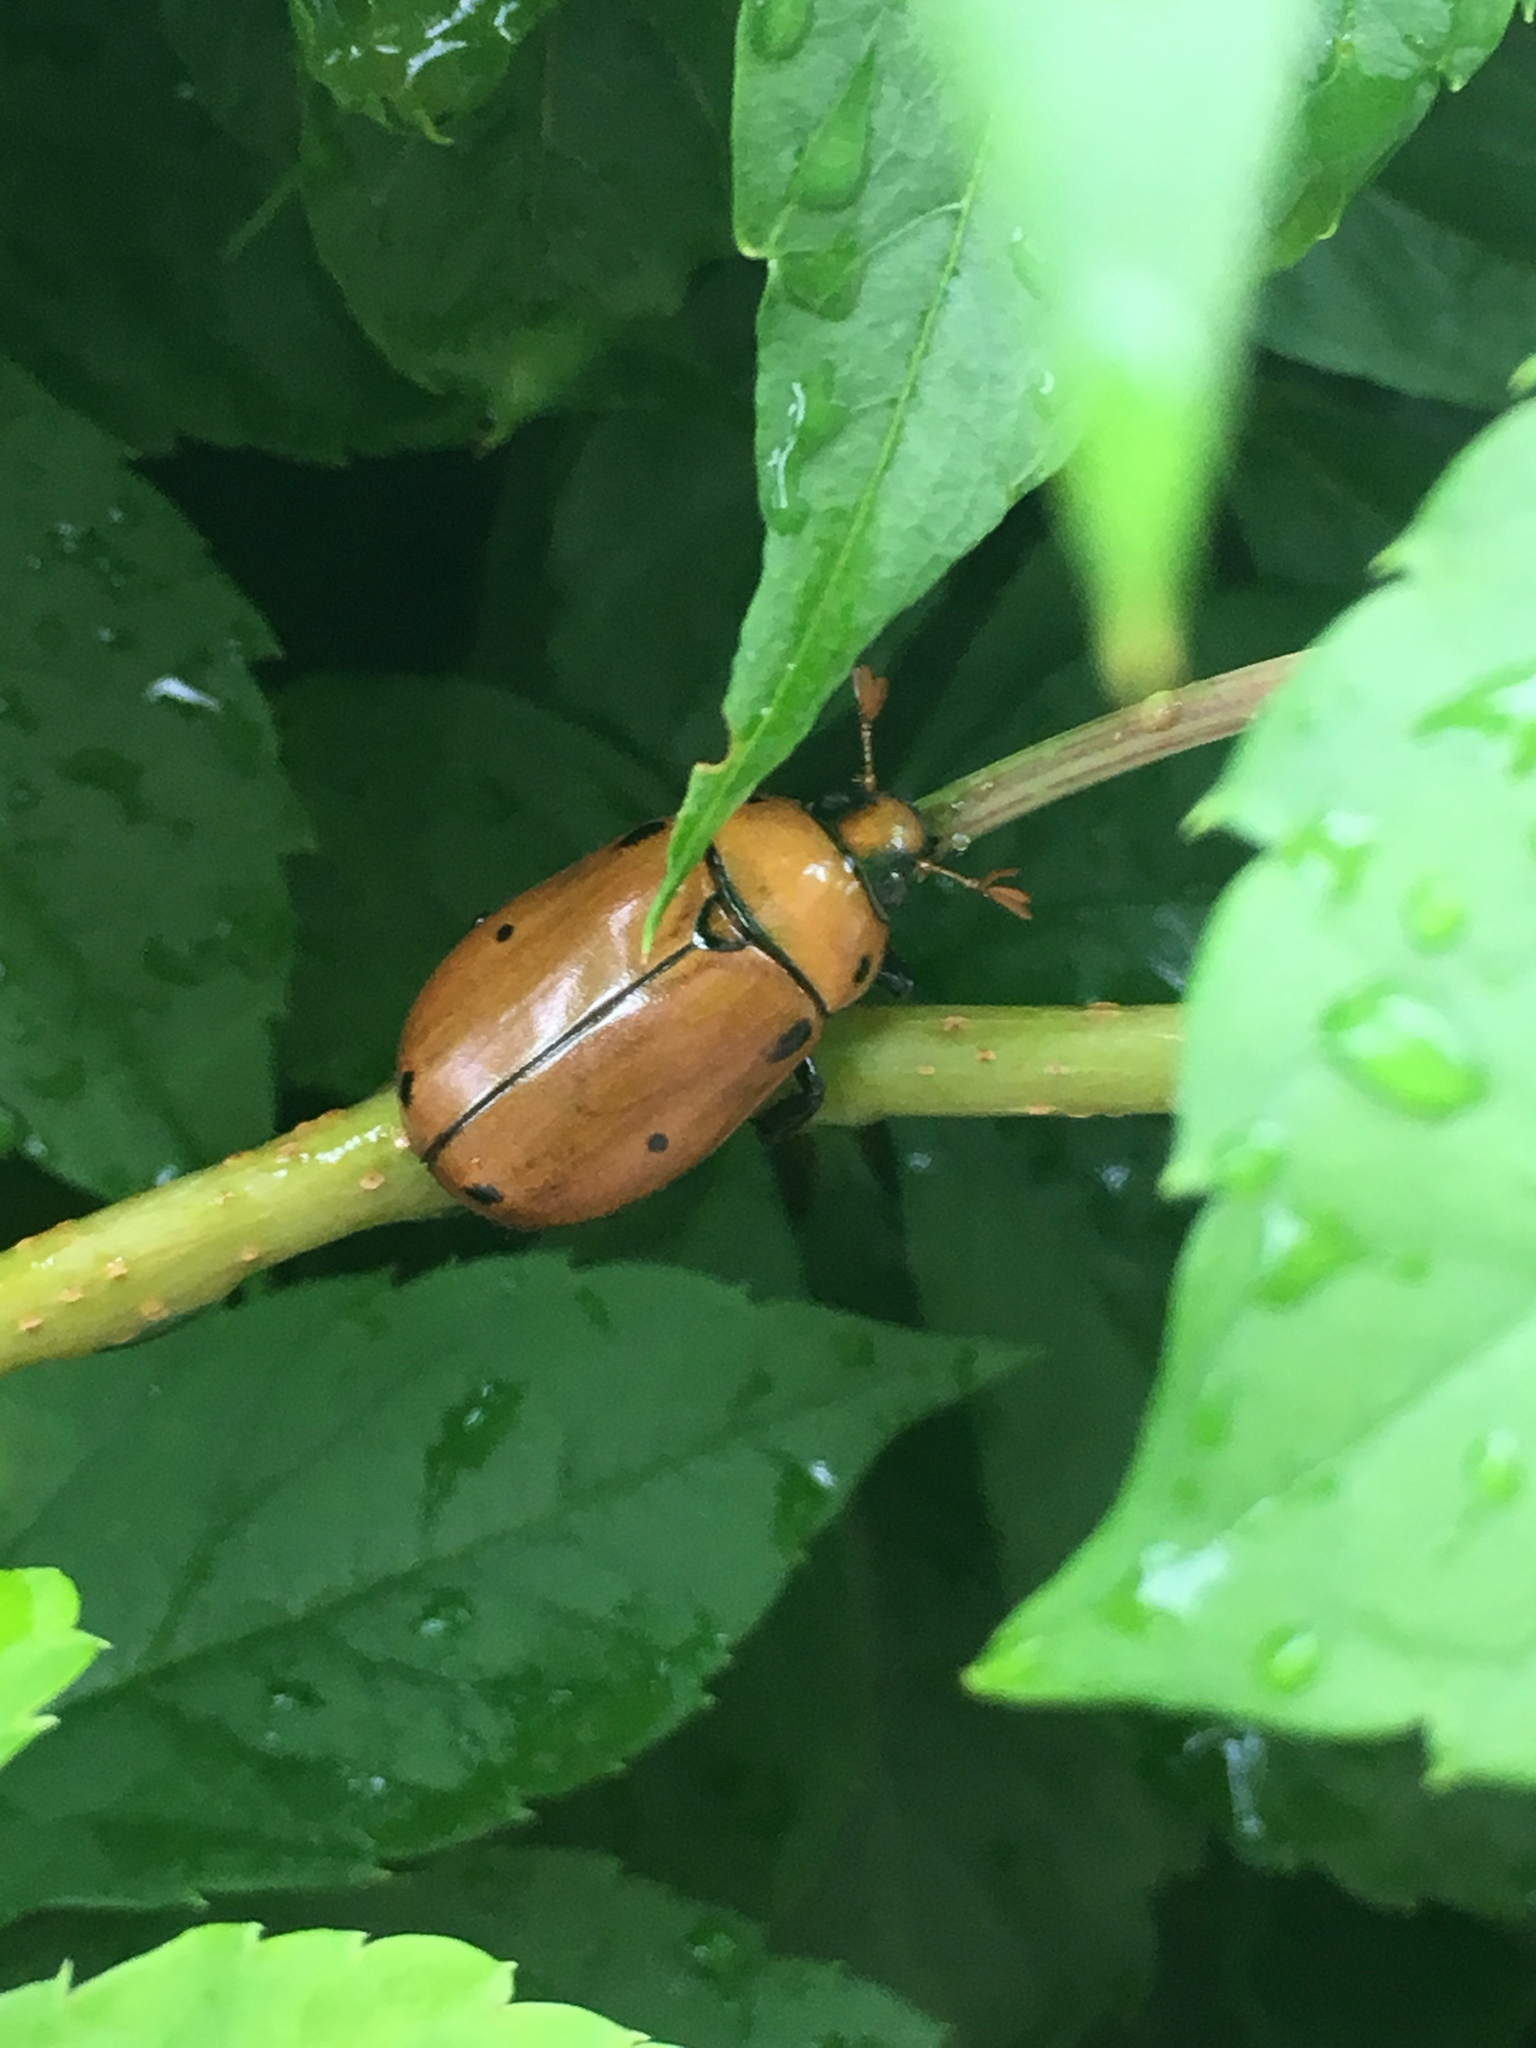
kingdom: Animalia
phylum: Arthropoda
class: Insecta
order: Coleoptera
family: Scarabaeidae
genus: Pelidnota
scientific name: Pelidnota punctata
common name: Grapevine beetle
